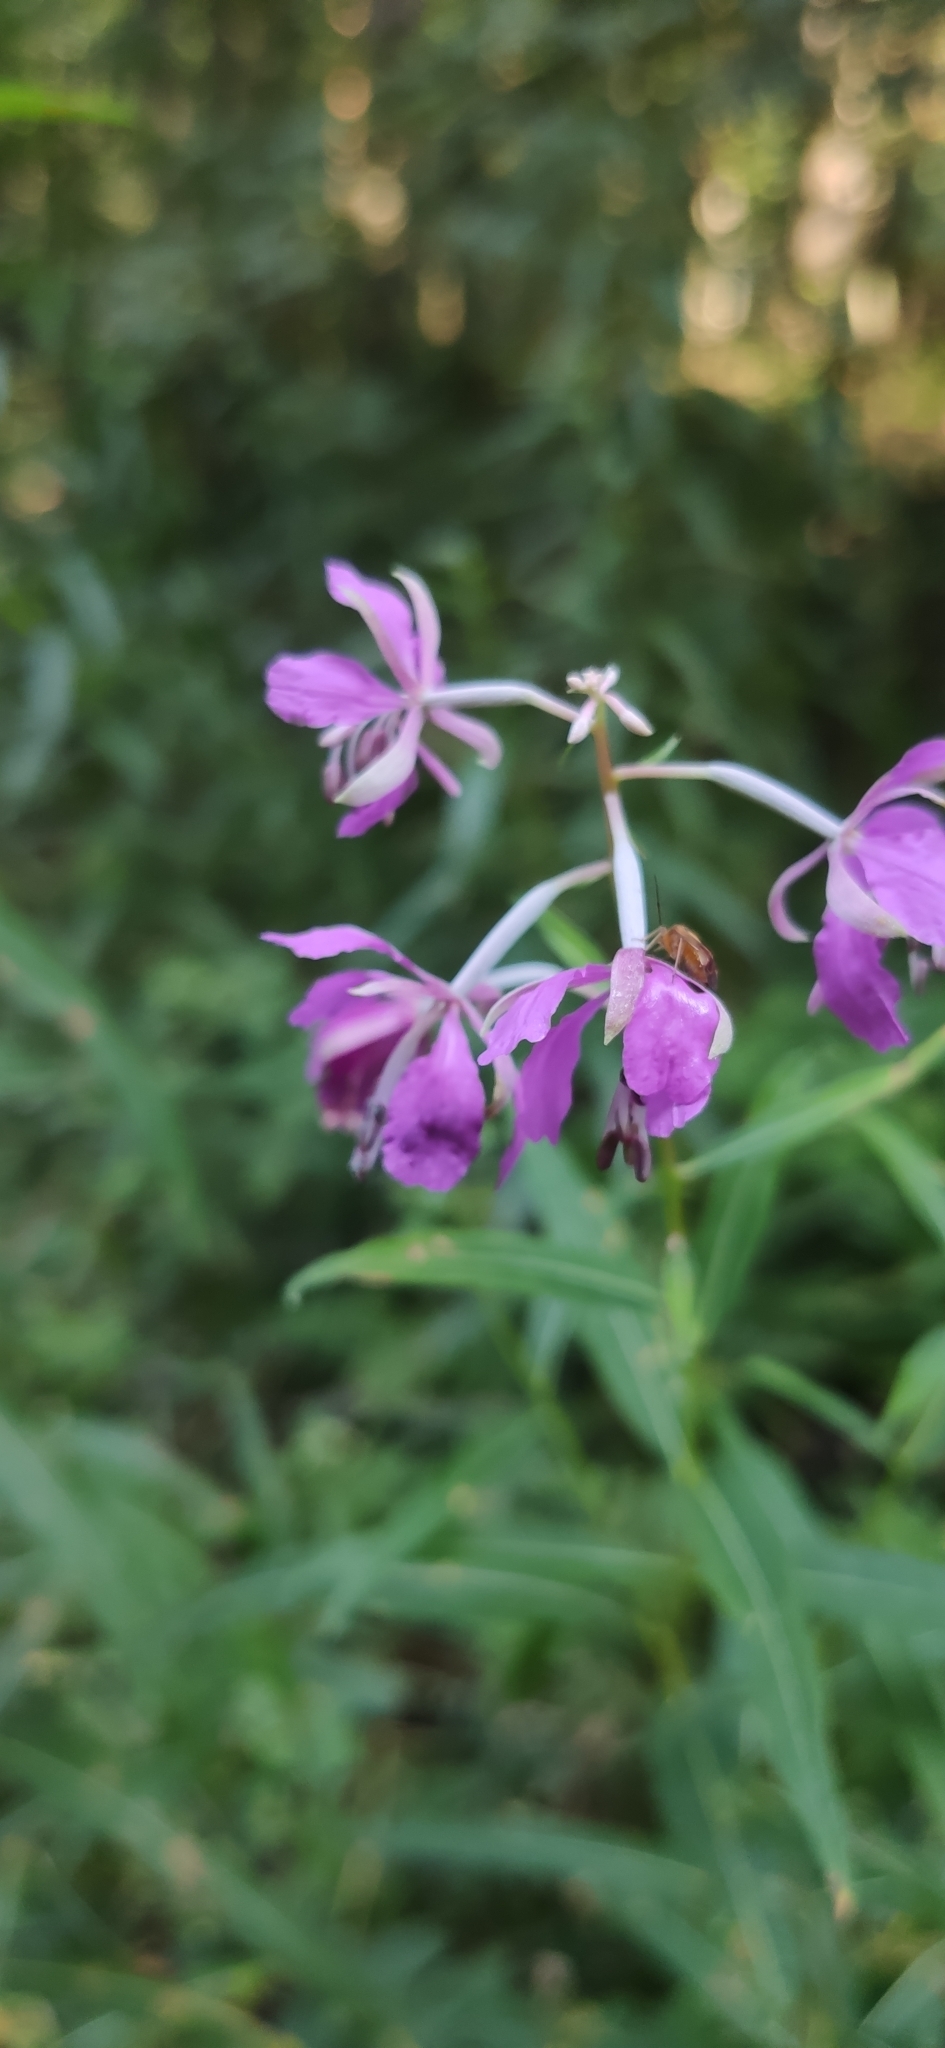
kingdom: Plantae
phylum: Tracheophyta
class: Magnoliopsida
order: Myrtales
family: Onagraceae
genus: Chamaenerion
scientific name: Chamaenerion angustifolium
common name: Fireweed
